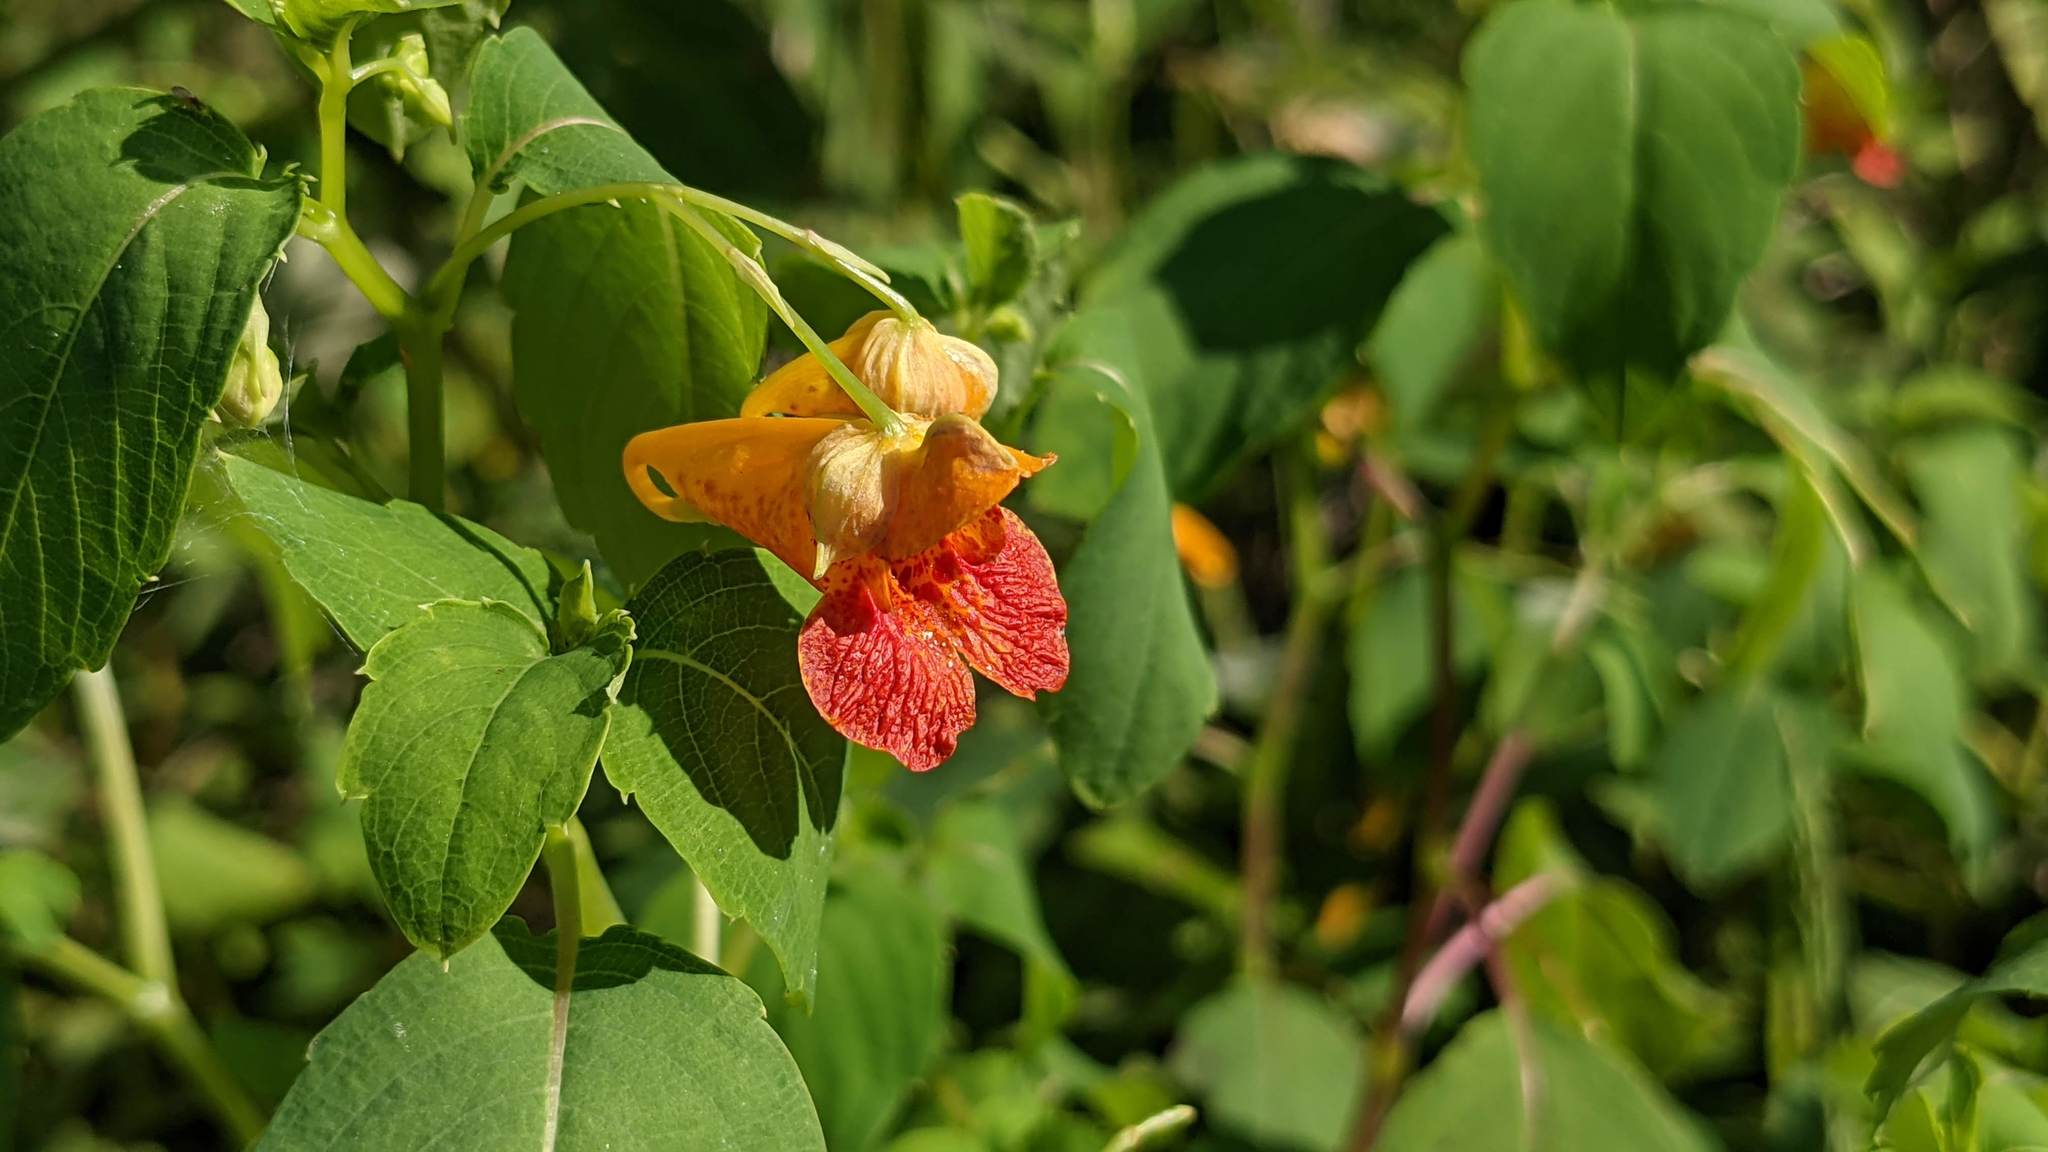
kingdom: Plantae
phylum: Tracheophyta
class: Magnoliopsida
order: Ericales
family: Balsaminaceae
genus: Impatiens
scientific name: Impatiens capensis
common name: Orange balsam
